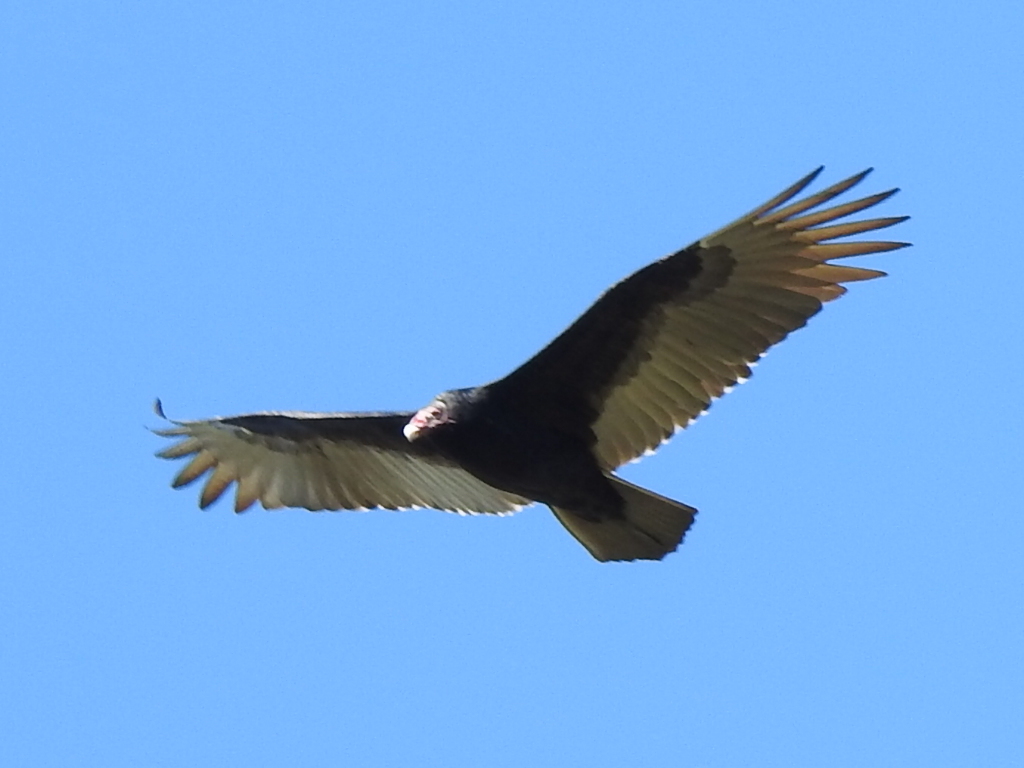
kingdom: Animalia
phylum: Chordata
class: Aves
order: Accipitriformes
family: Cathartidae
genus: Cathartes
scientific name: Cathartes aura
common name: Turkey vulture
